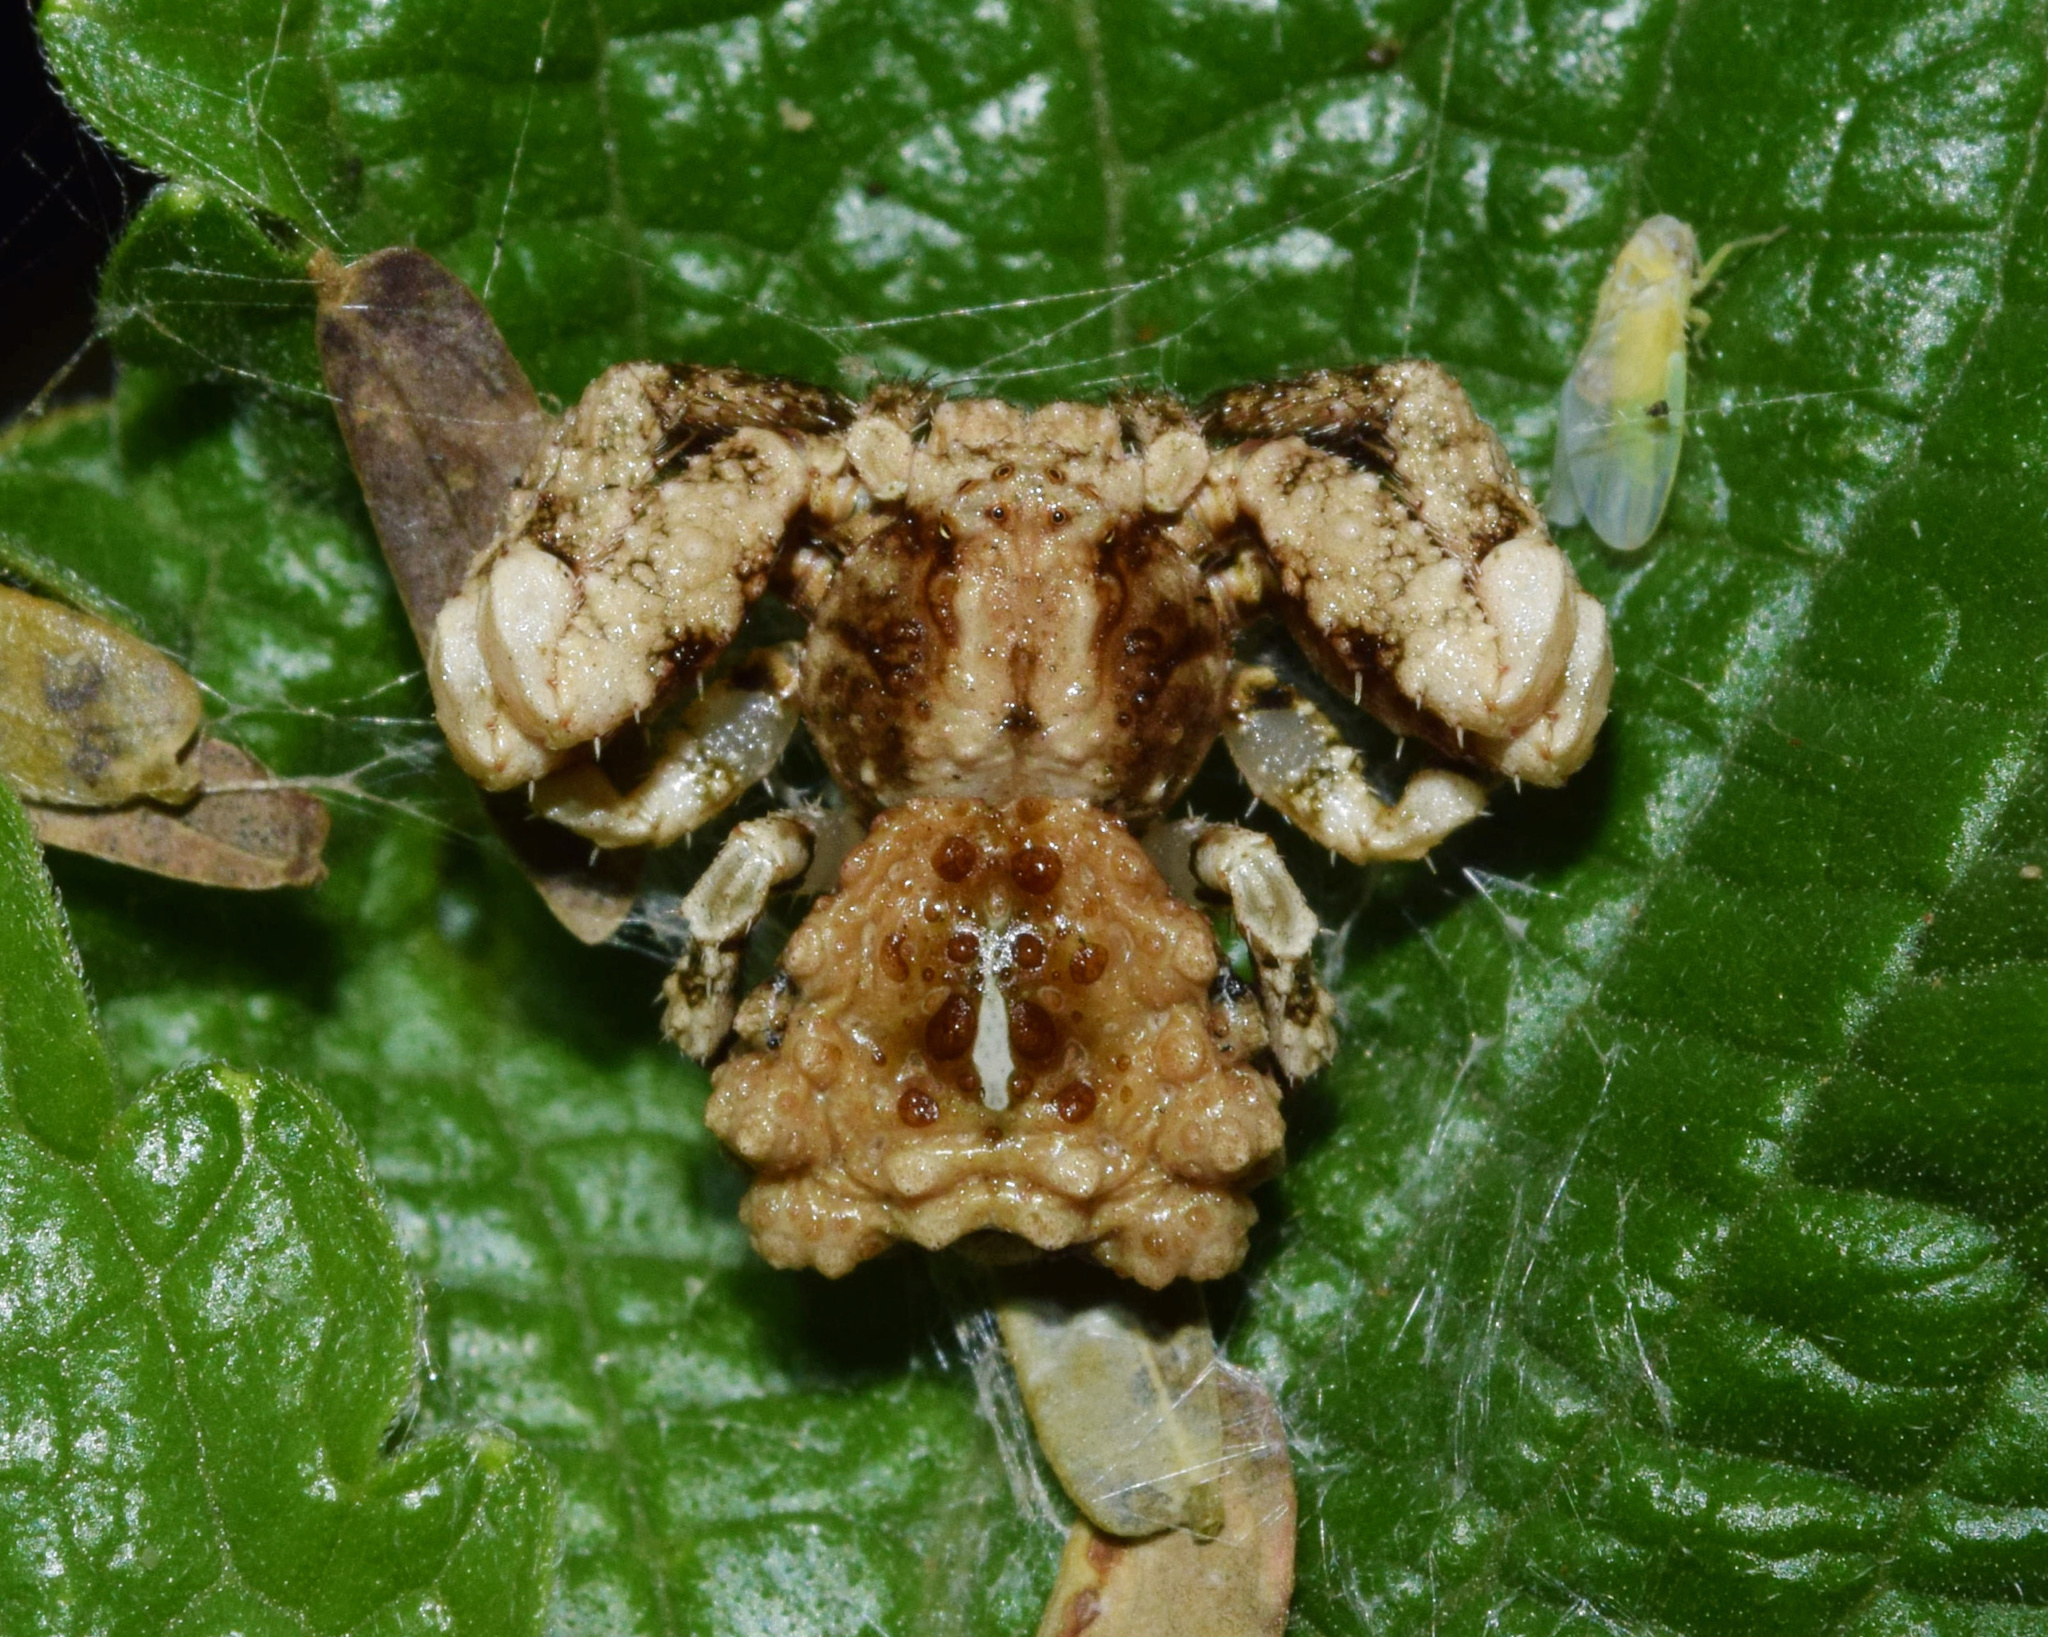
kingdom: Animalia
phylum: Arthropoda
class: Arachnida
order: Araneae
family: Thomisidae
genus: Phrynarachne
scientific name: Phrynarachne rugosa
